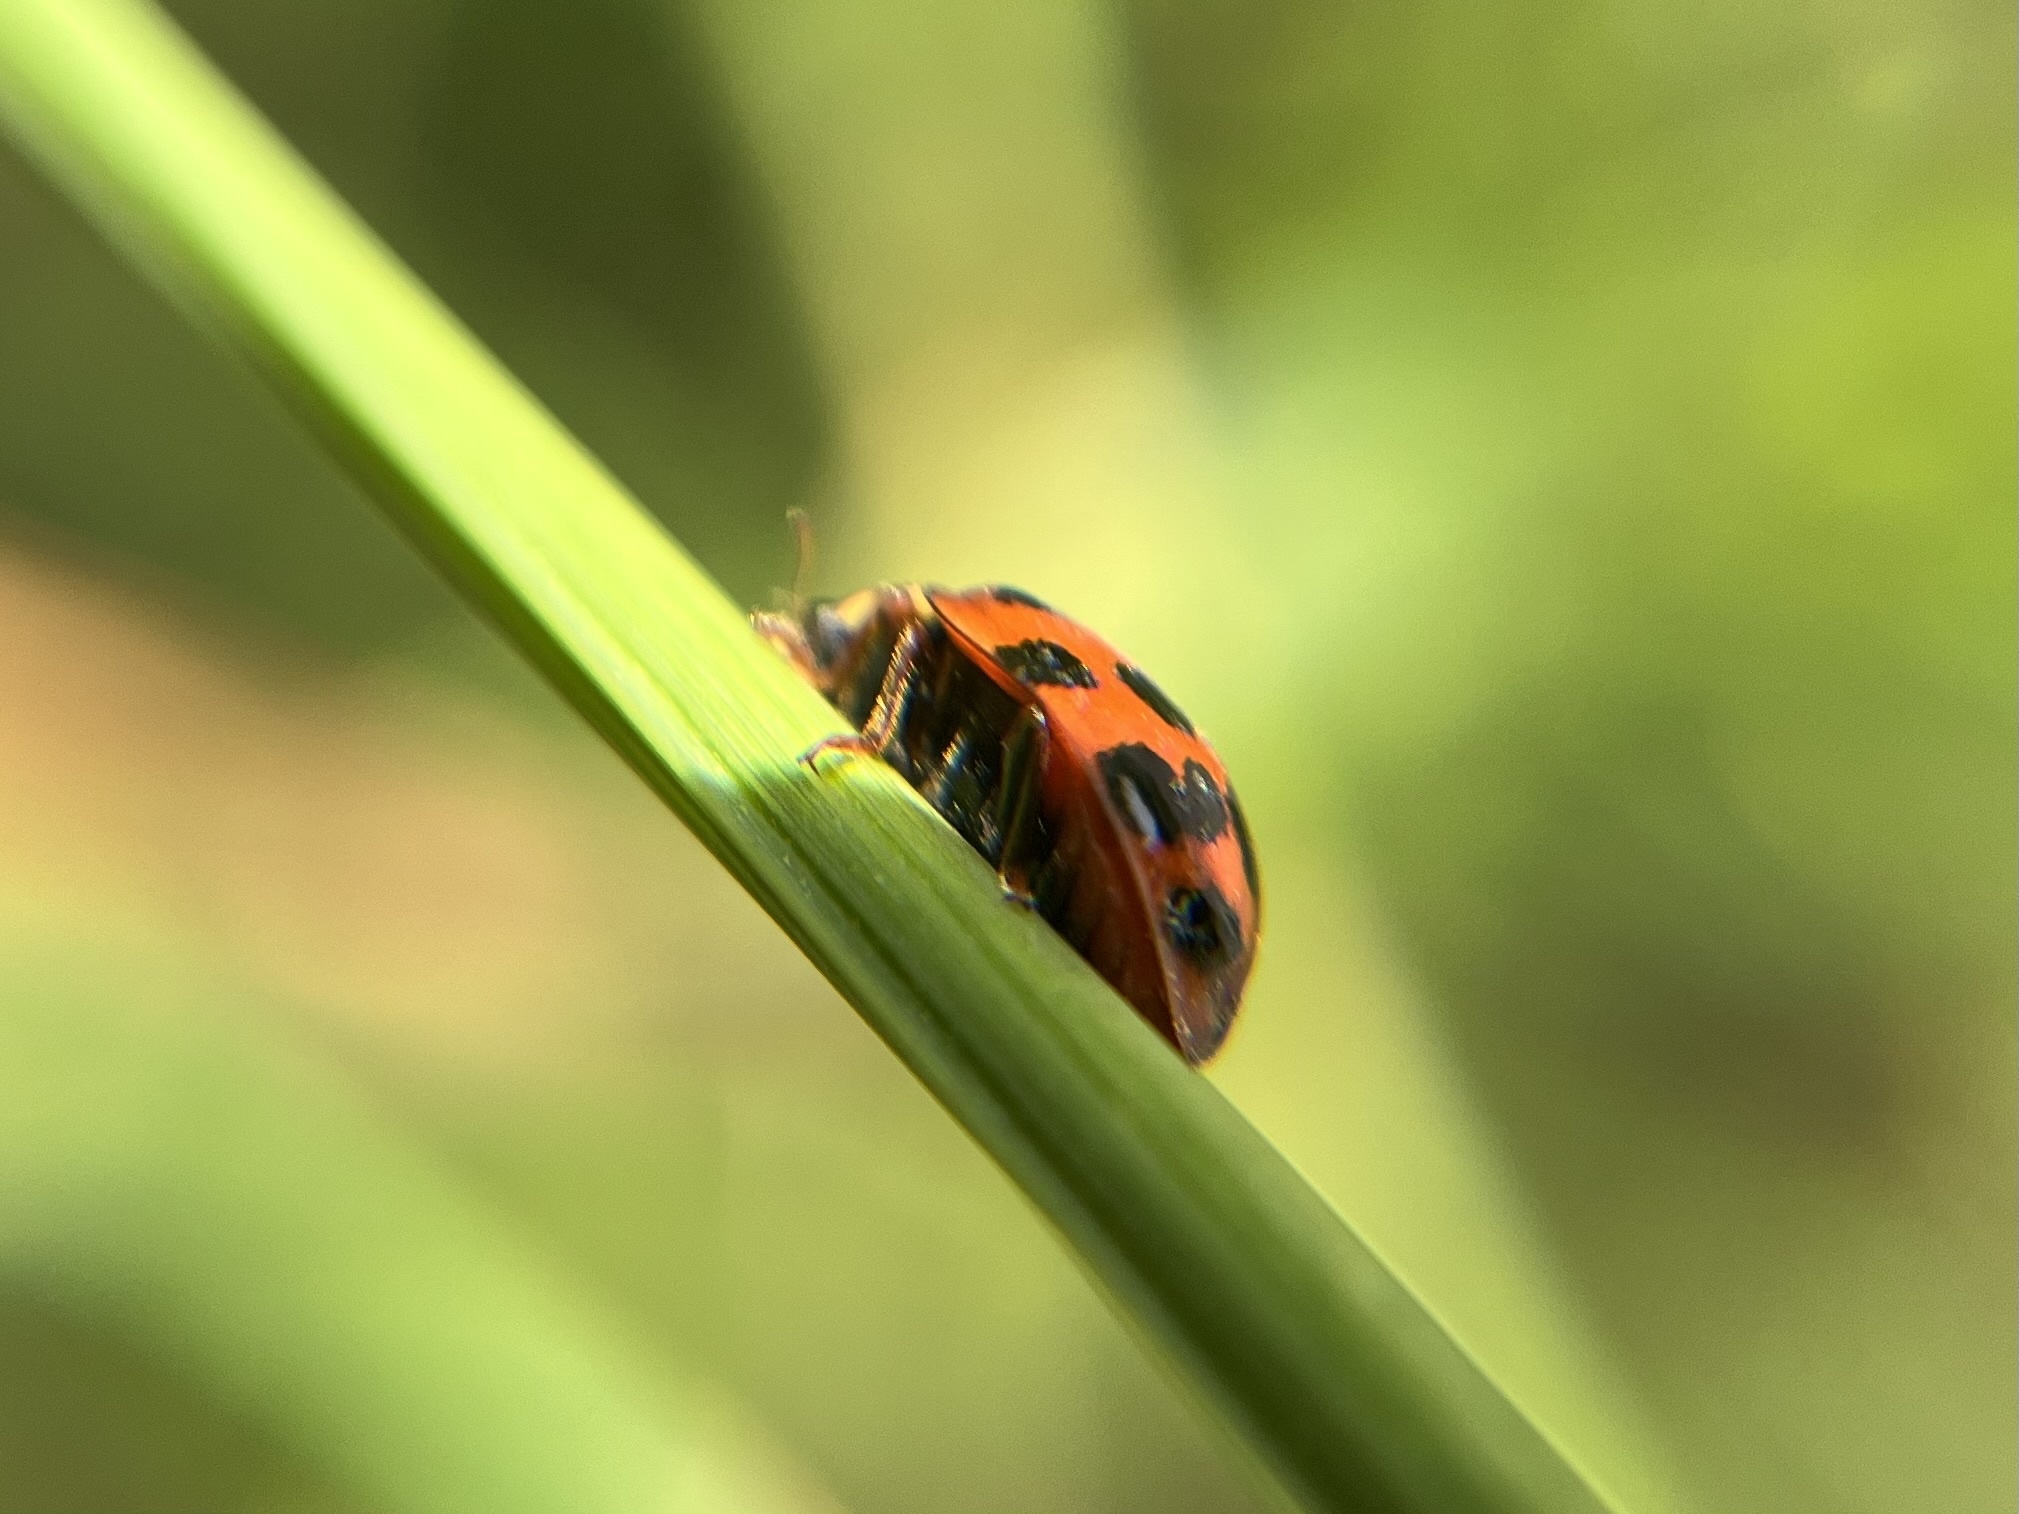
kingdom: Animalia
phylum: Arthropoda
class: Insecta
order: Coleoptera
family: Coccinellidae
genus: Harmonia
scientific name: Harmonia axyridis
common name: Harlequin ladybird
